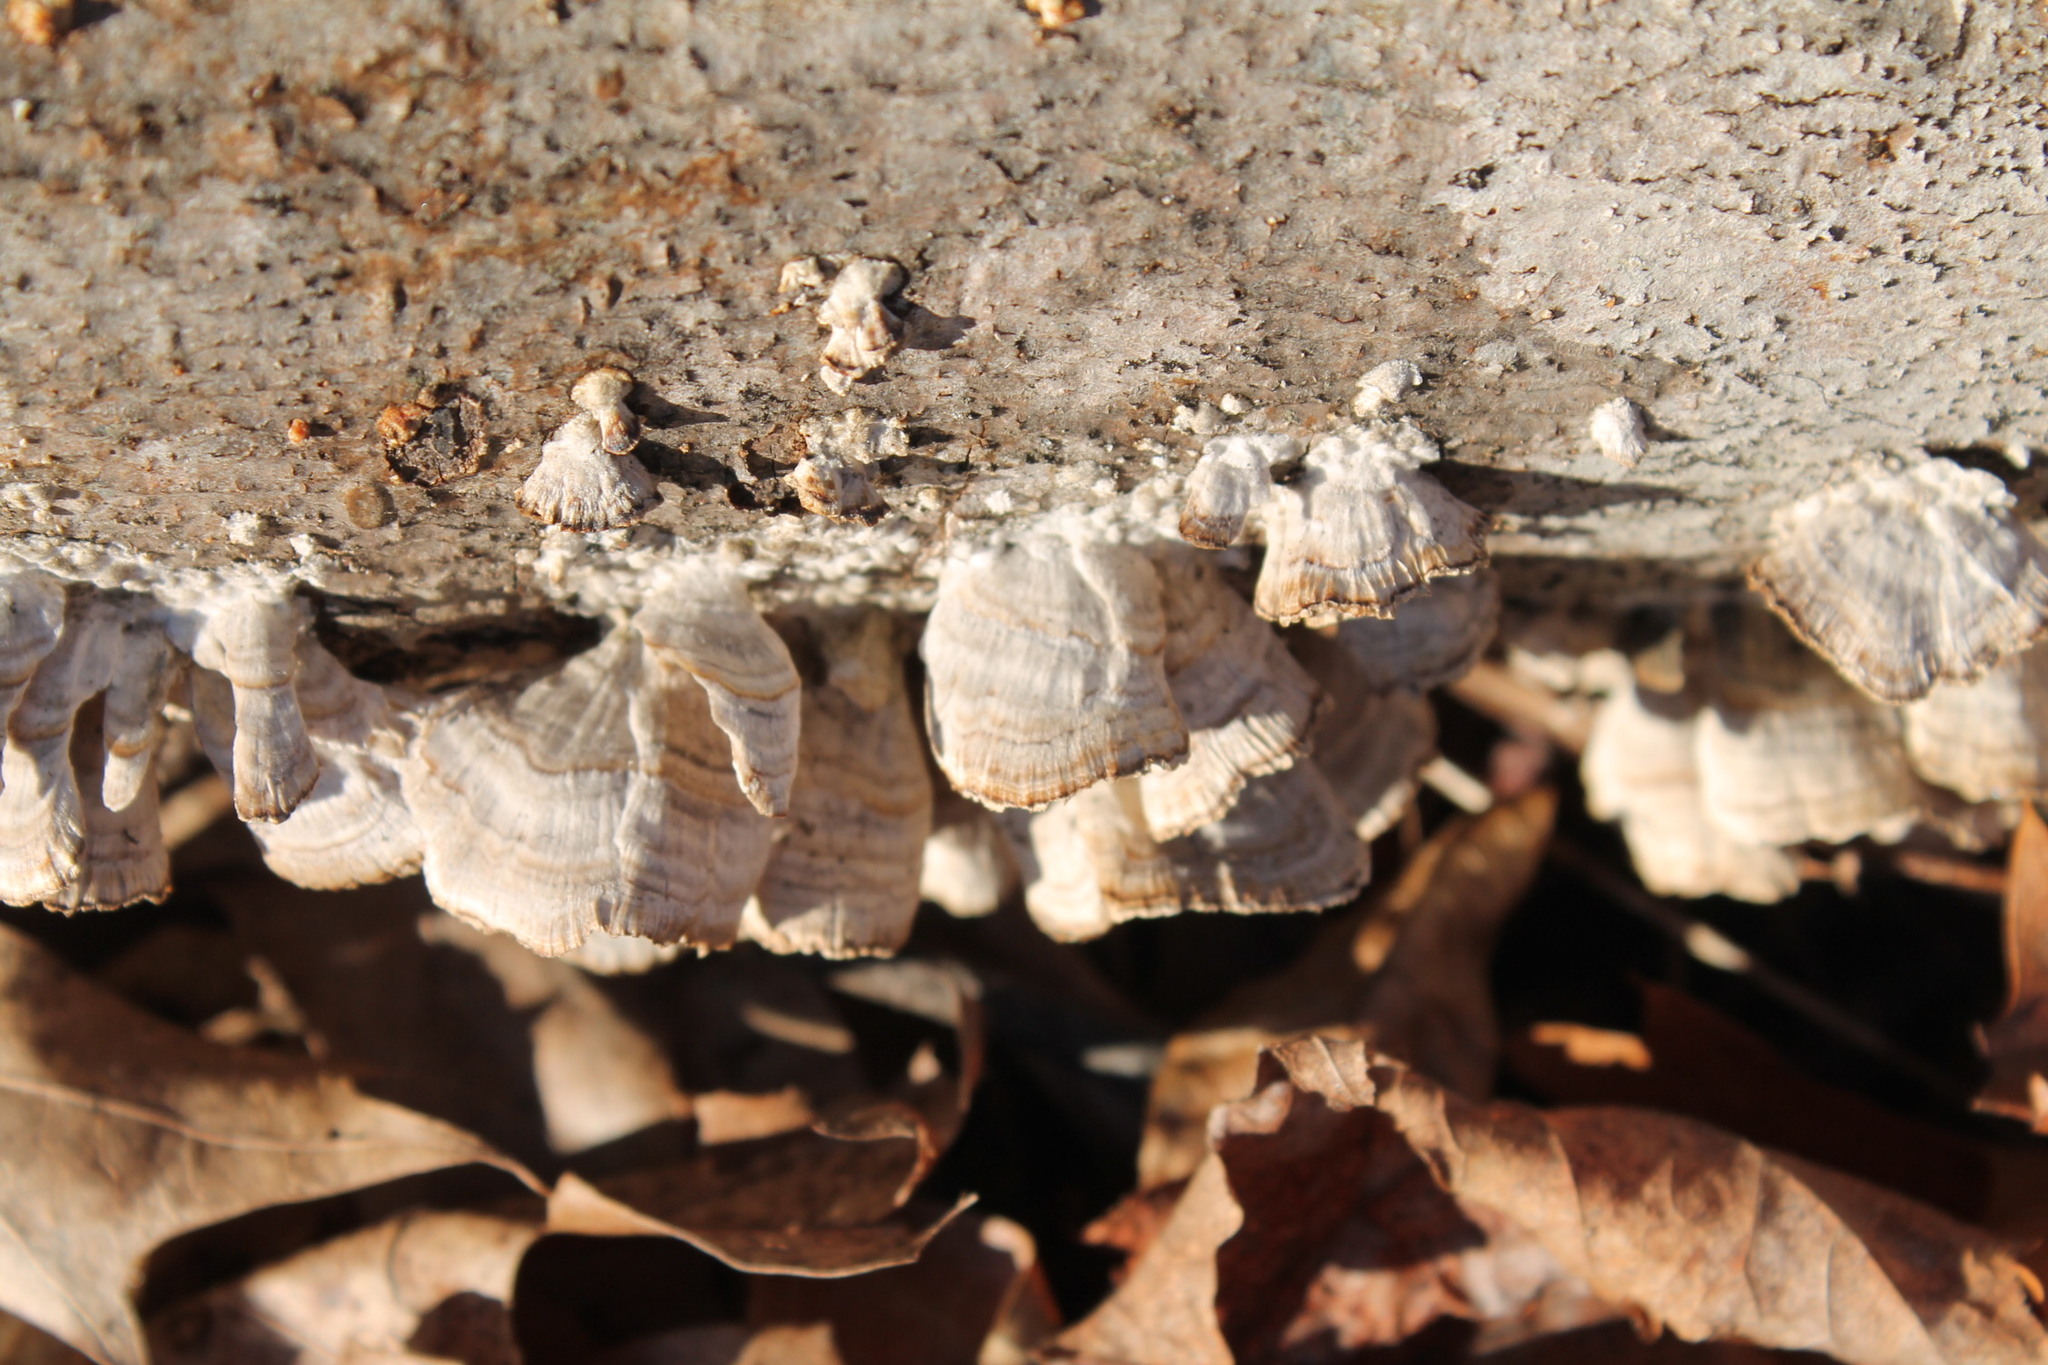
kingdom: Fungi
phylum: Basidiomycota
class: Agaricomycetes
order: Hymenochaetales
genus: Trichaptum
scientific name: Trichaptum biforme
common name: Violet-toothed polypore
